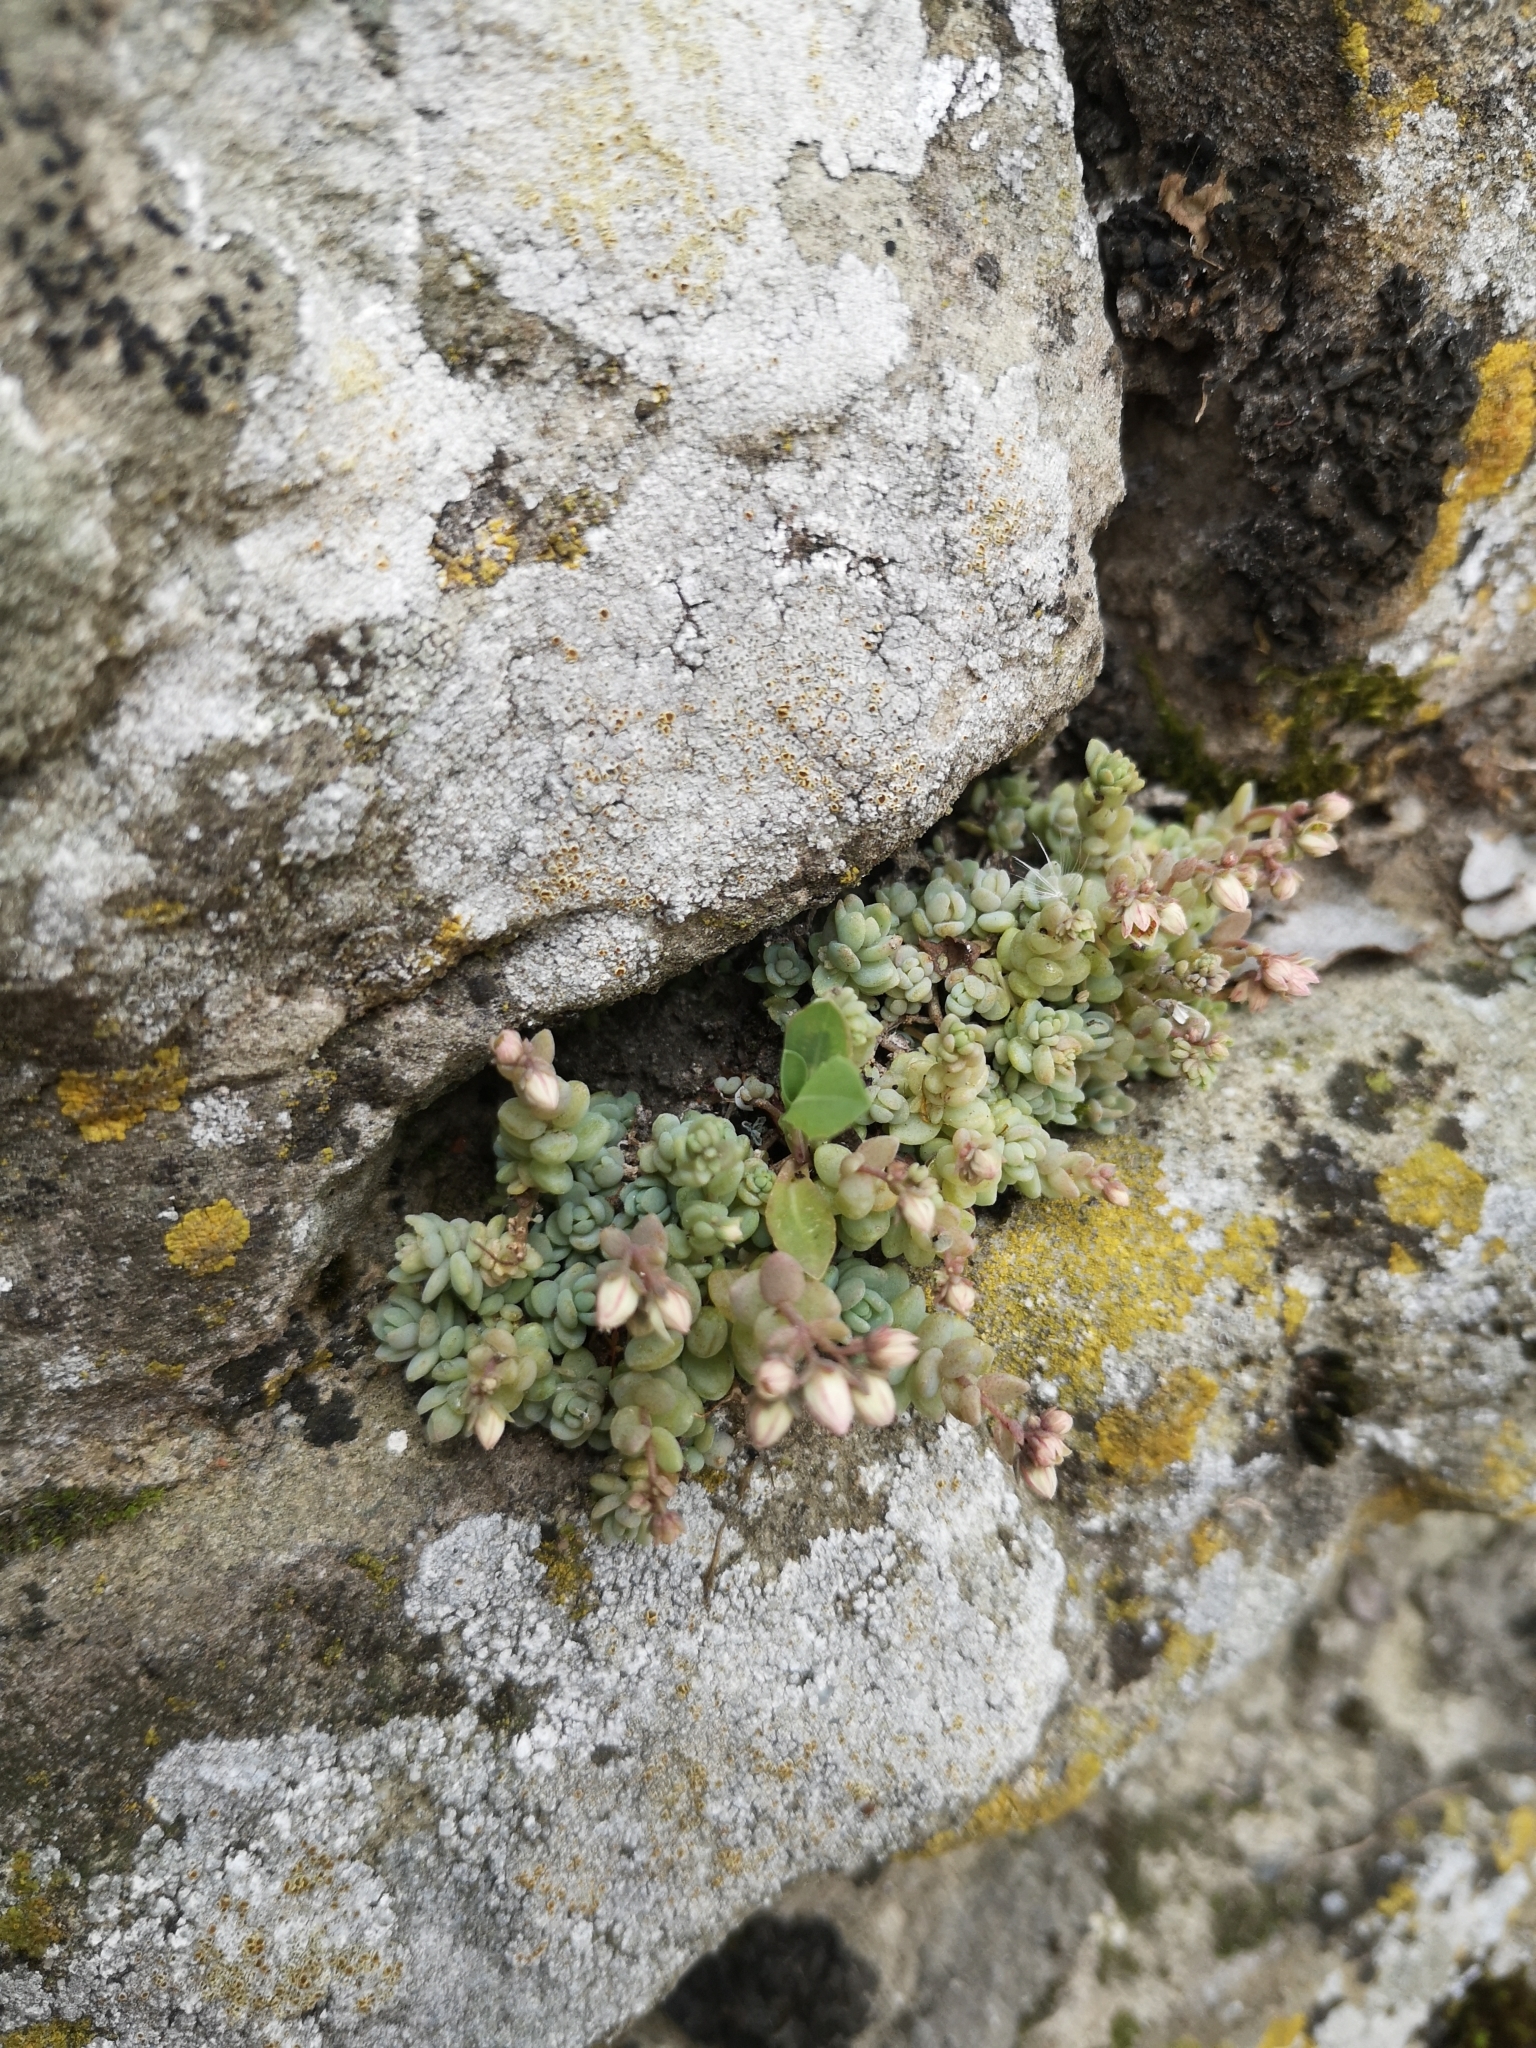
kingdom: Plantae
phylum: Tracheophyta
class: Magnoliopsida
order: Saxifragales
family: Crassulaceae
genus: Sedum
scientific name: Sedum dasyphyllum
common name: Thick-leaf stonecrop
